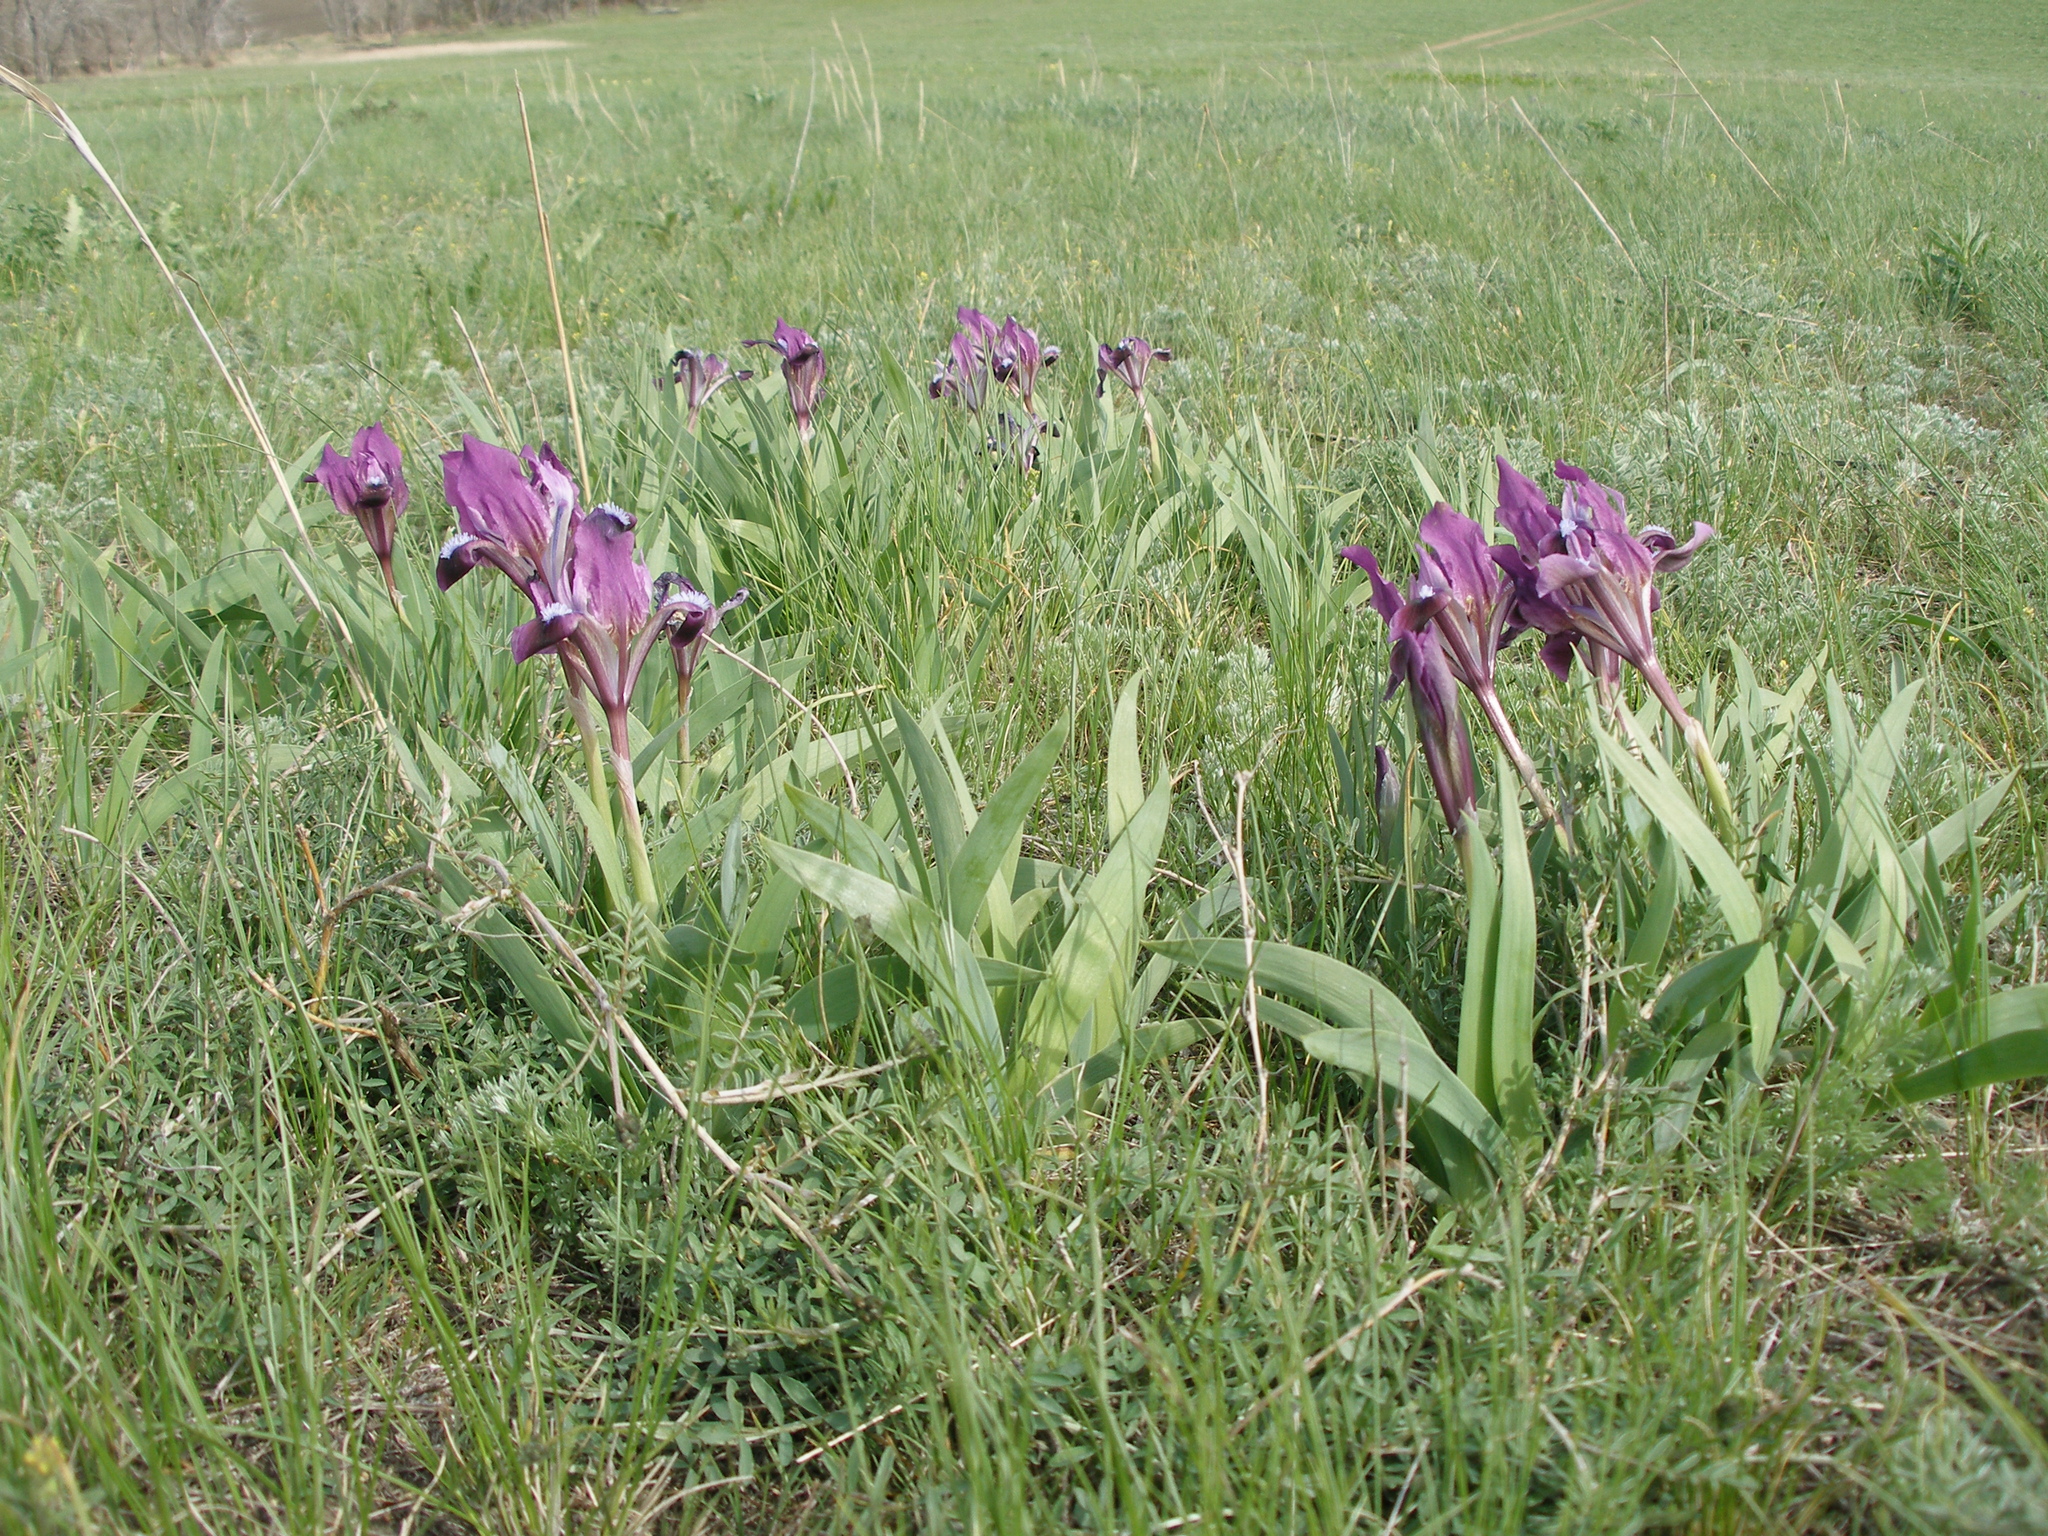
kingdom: Plantae
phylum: Tracheophyta
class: Liliopsida
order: Asparagales
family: Iridaceae
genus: Iris
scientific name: Iris pumila
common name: Dwarf iris
